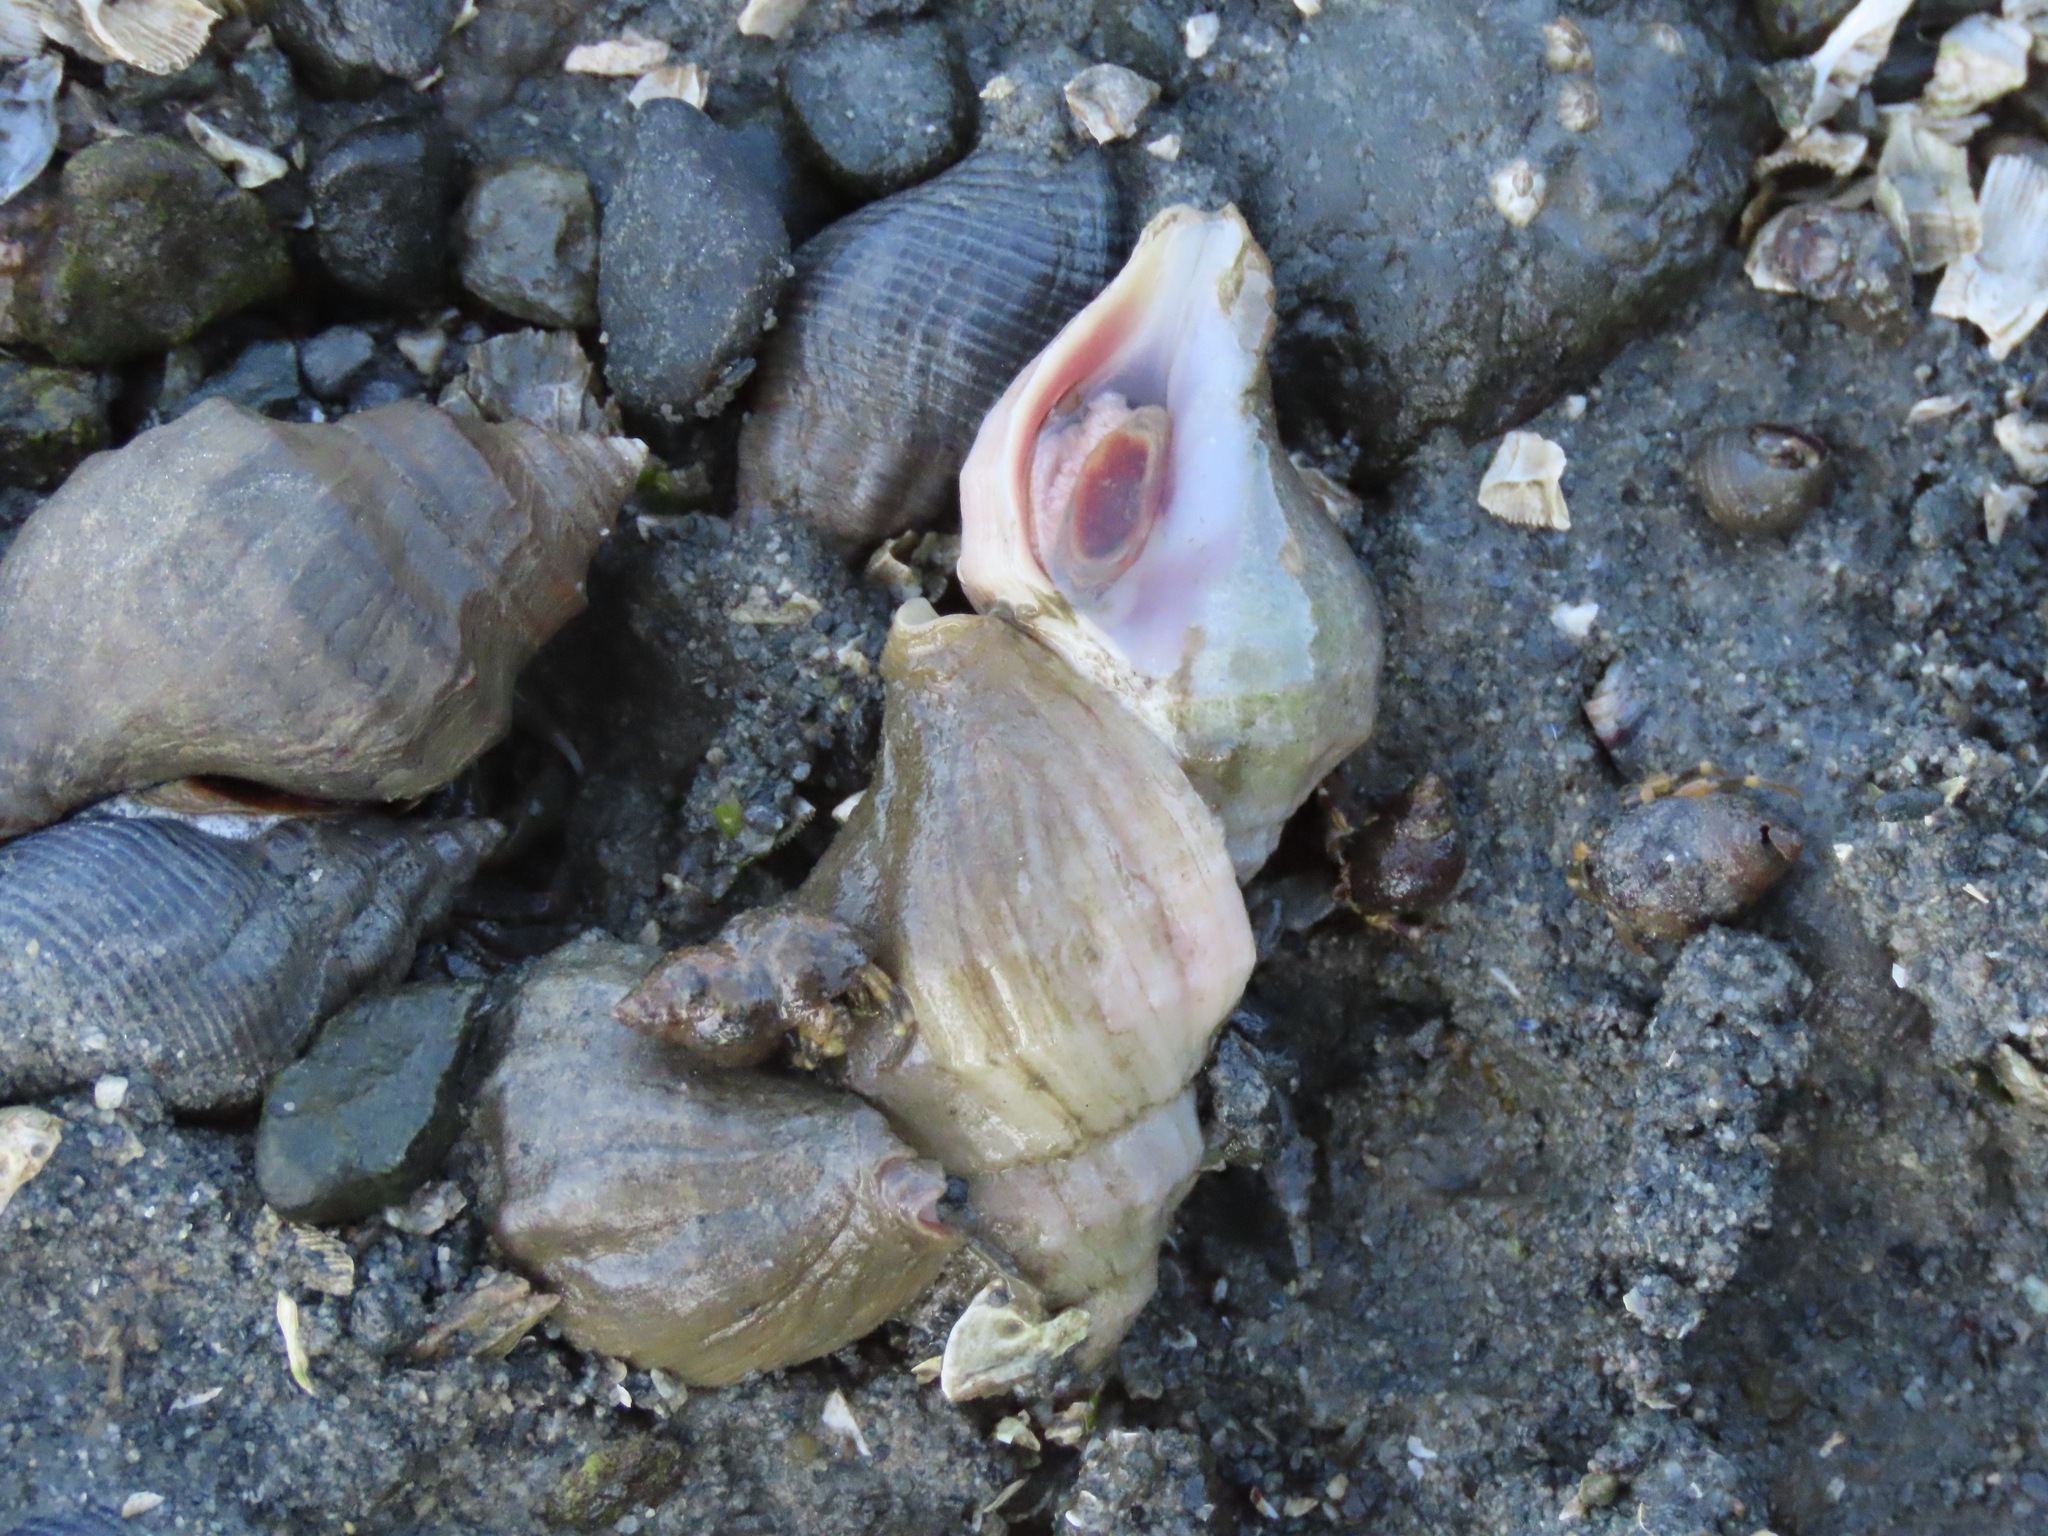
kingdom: Animalia
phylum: Mollusca
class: Gastropoda
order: Neogastropoda
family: Muricidae
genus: Nucella
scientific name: Nucella lamellosa
